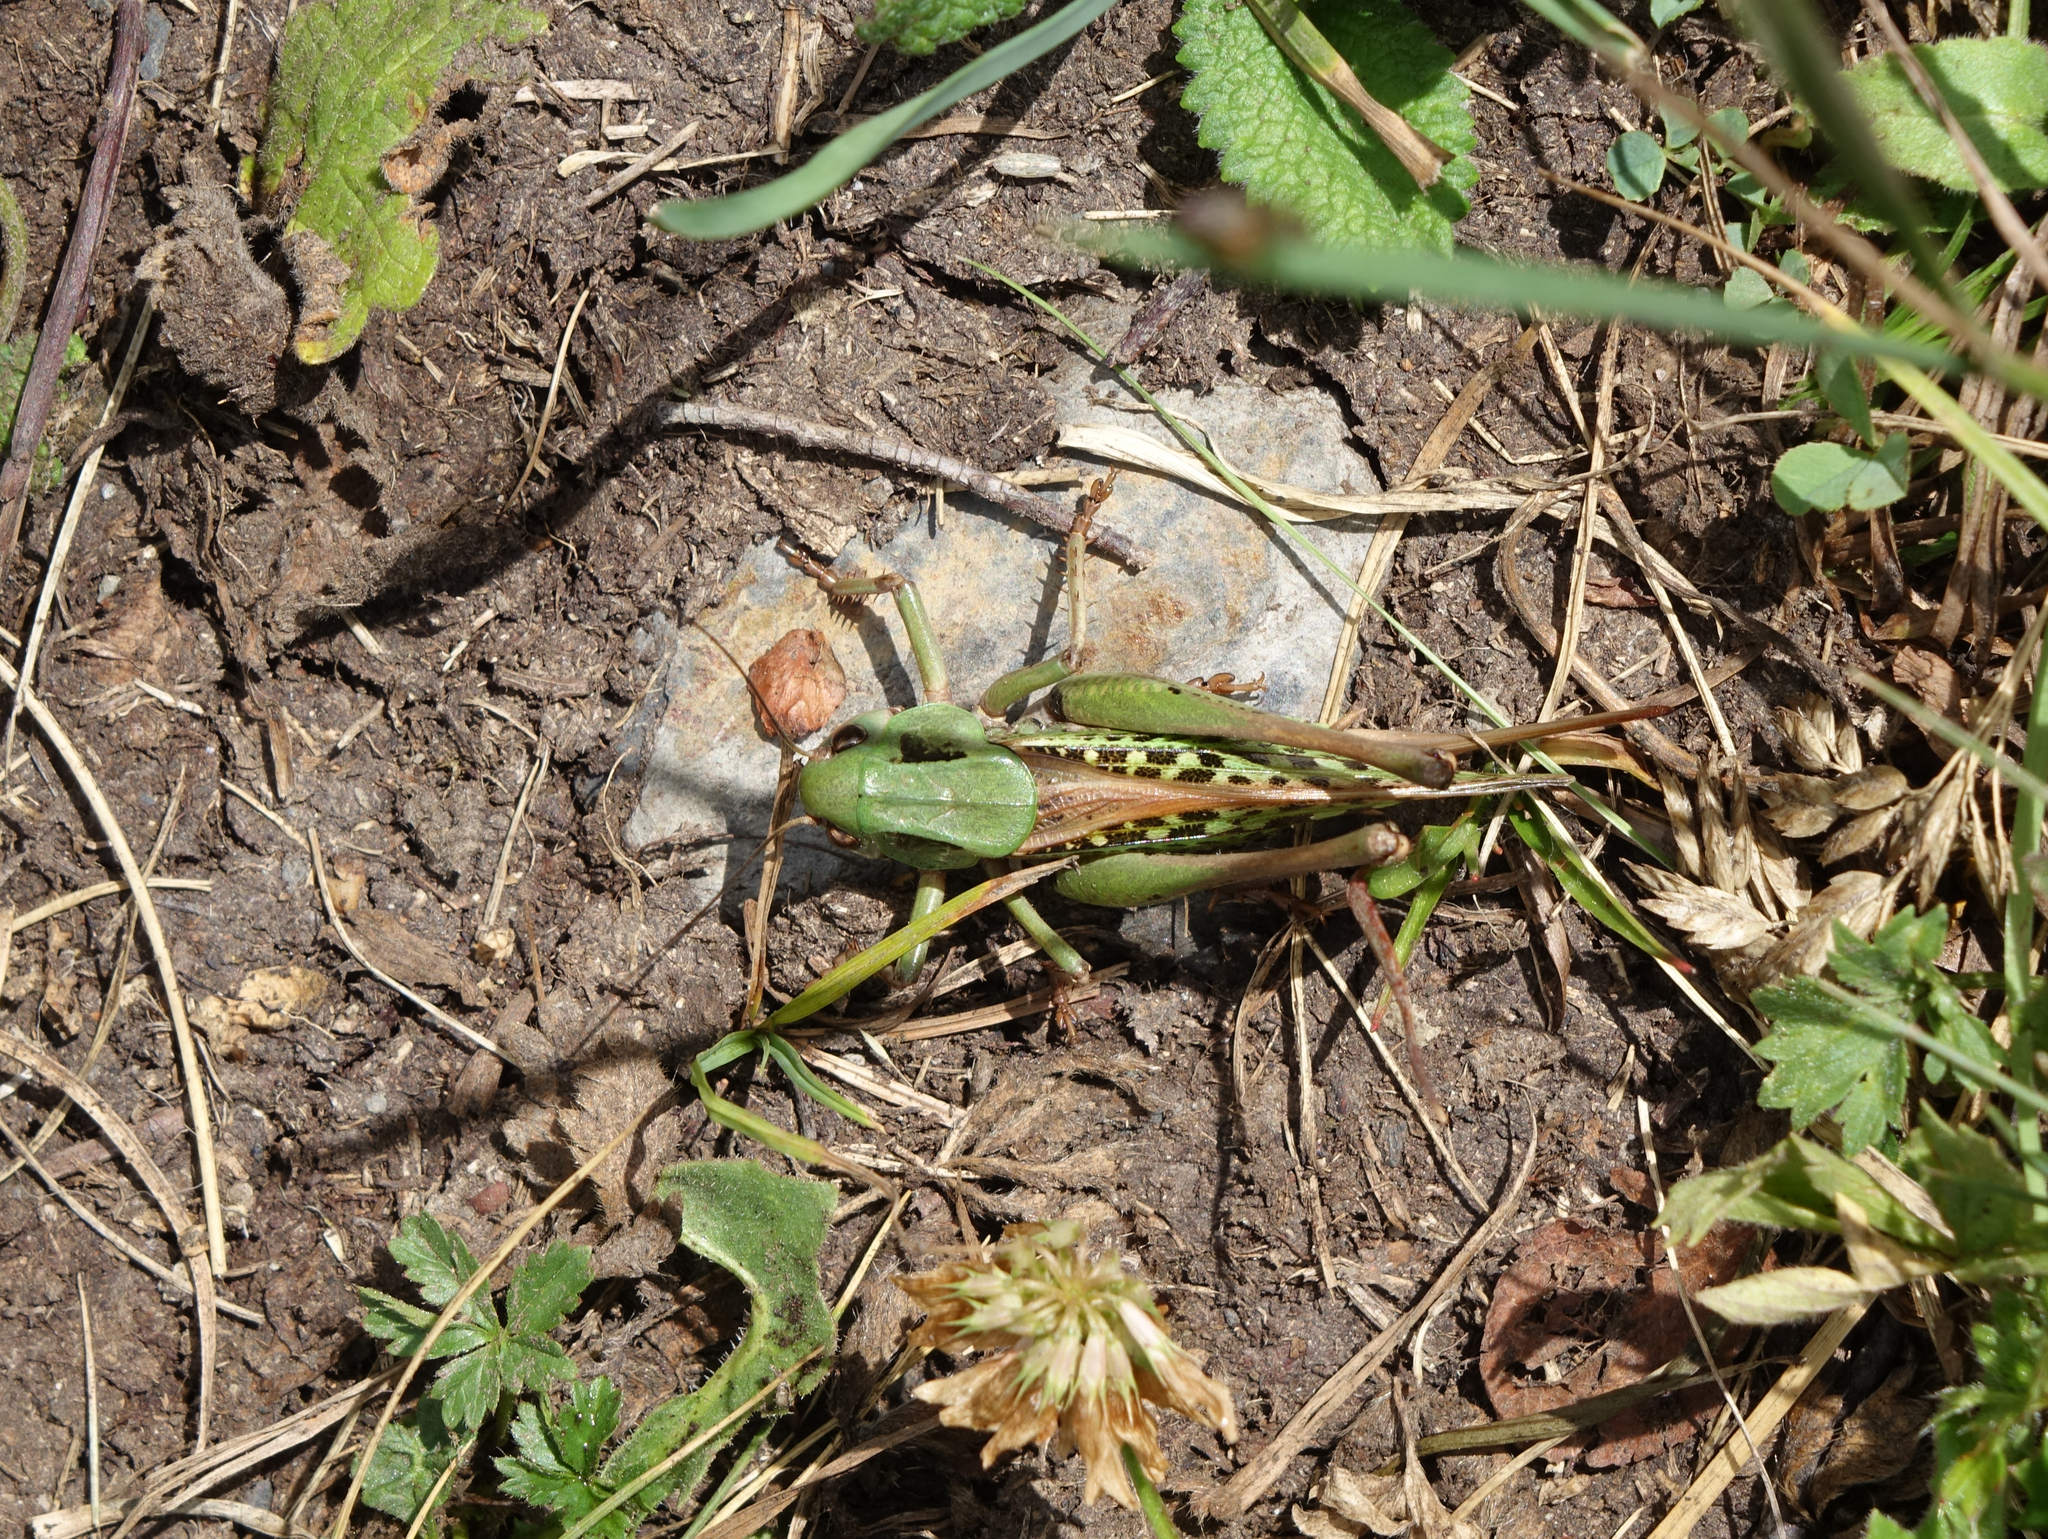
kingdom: Animalia
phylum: Arthropoda
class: Insecta
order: Orthoptera
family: Tettigoniidae
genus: Decticus
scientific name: Decticus verrucivorus
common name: Wart-biter
